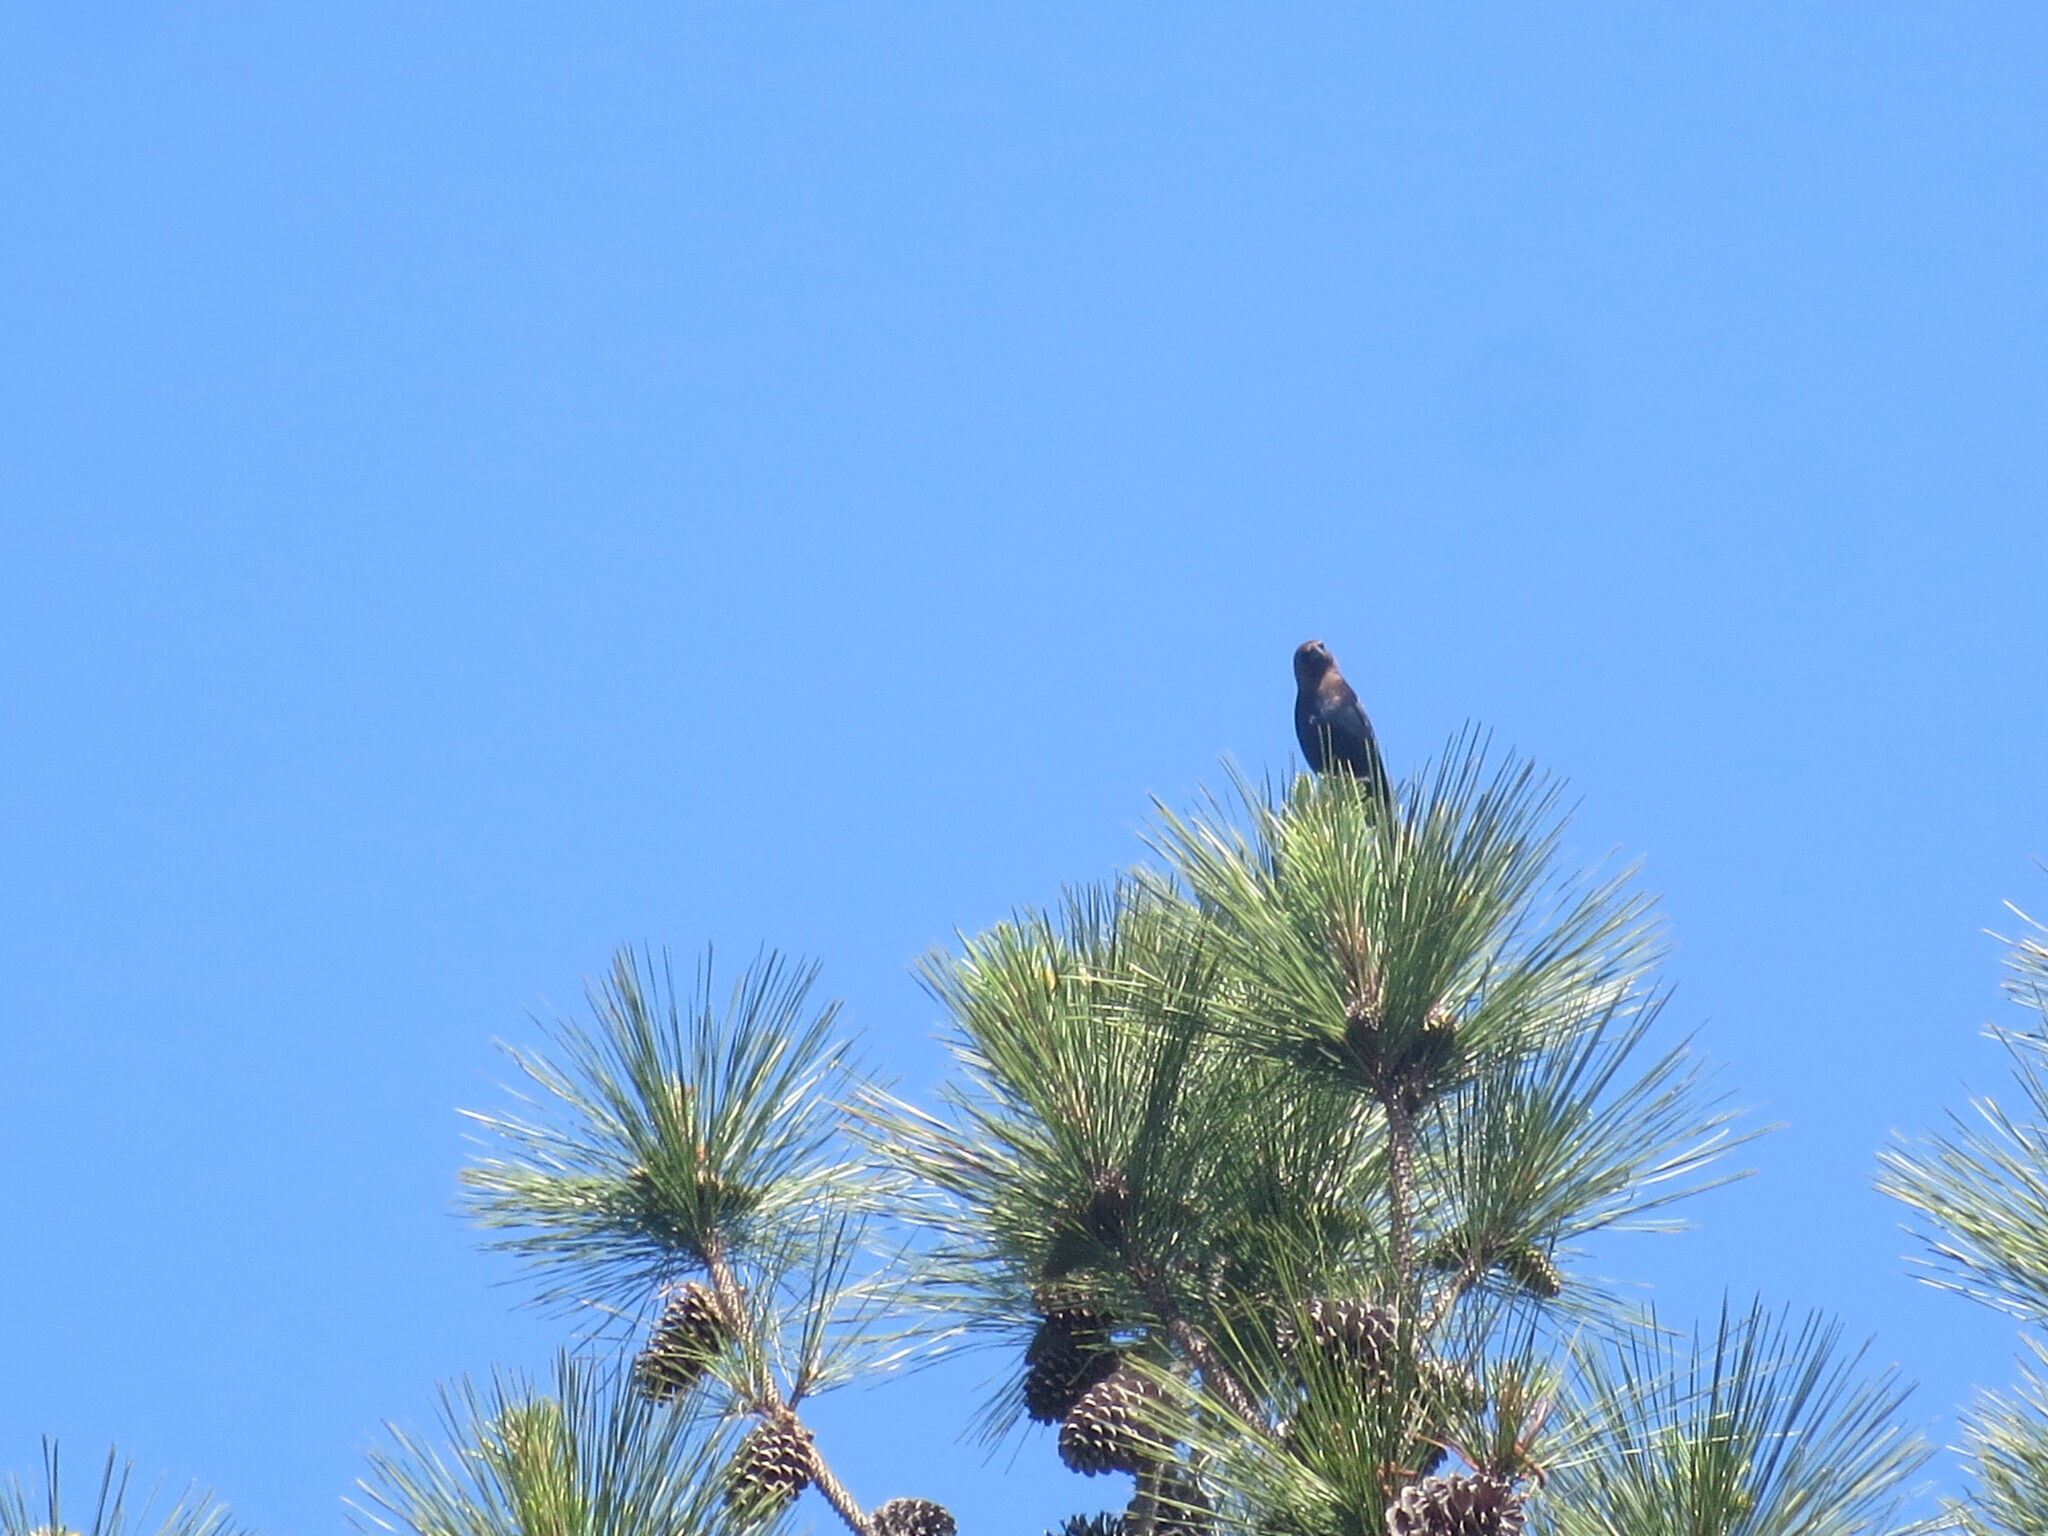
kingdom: Animalia
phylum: Chordata
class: Aves
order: Passeriformes
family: Icteridae
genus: Molothrus
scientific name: Molothrus ater
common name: Brown-headed cowbird
